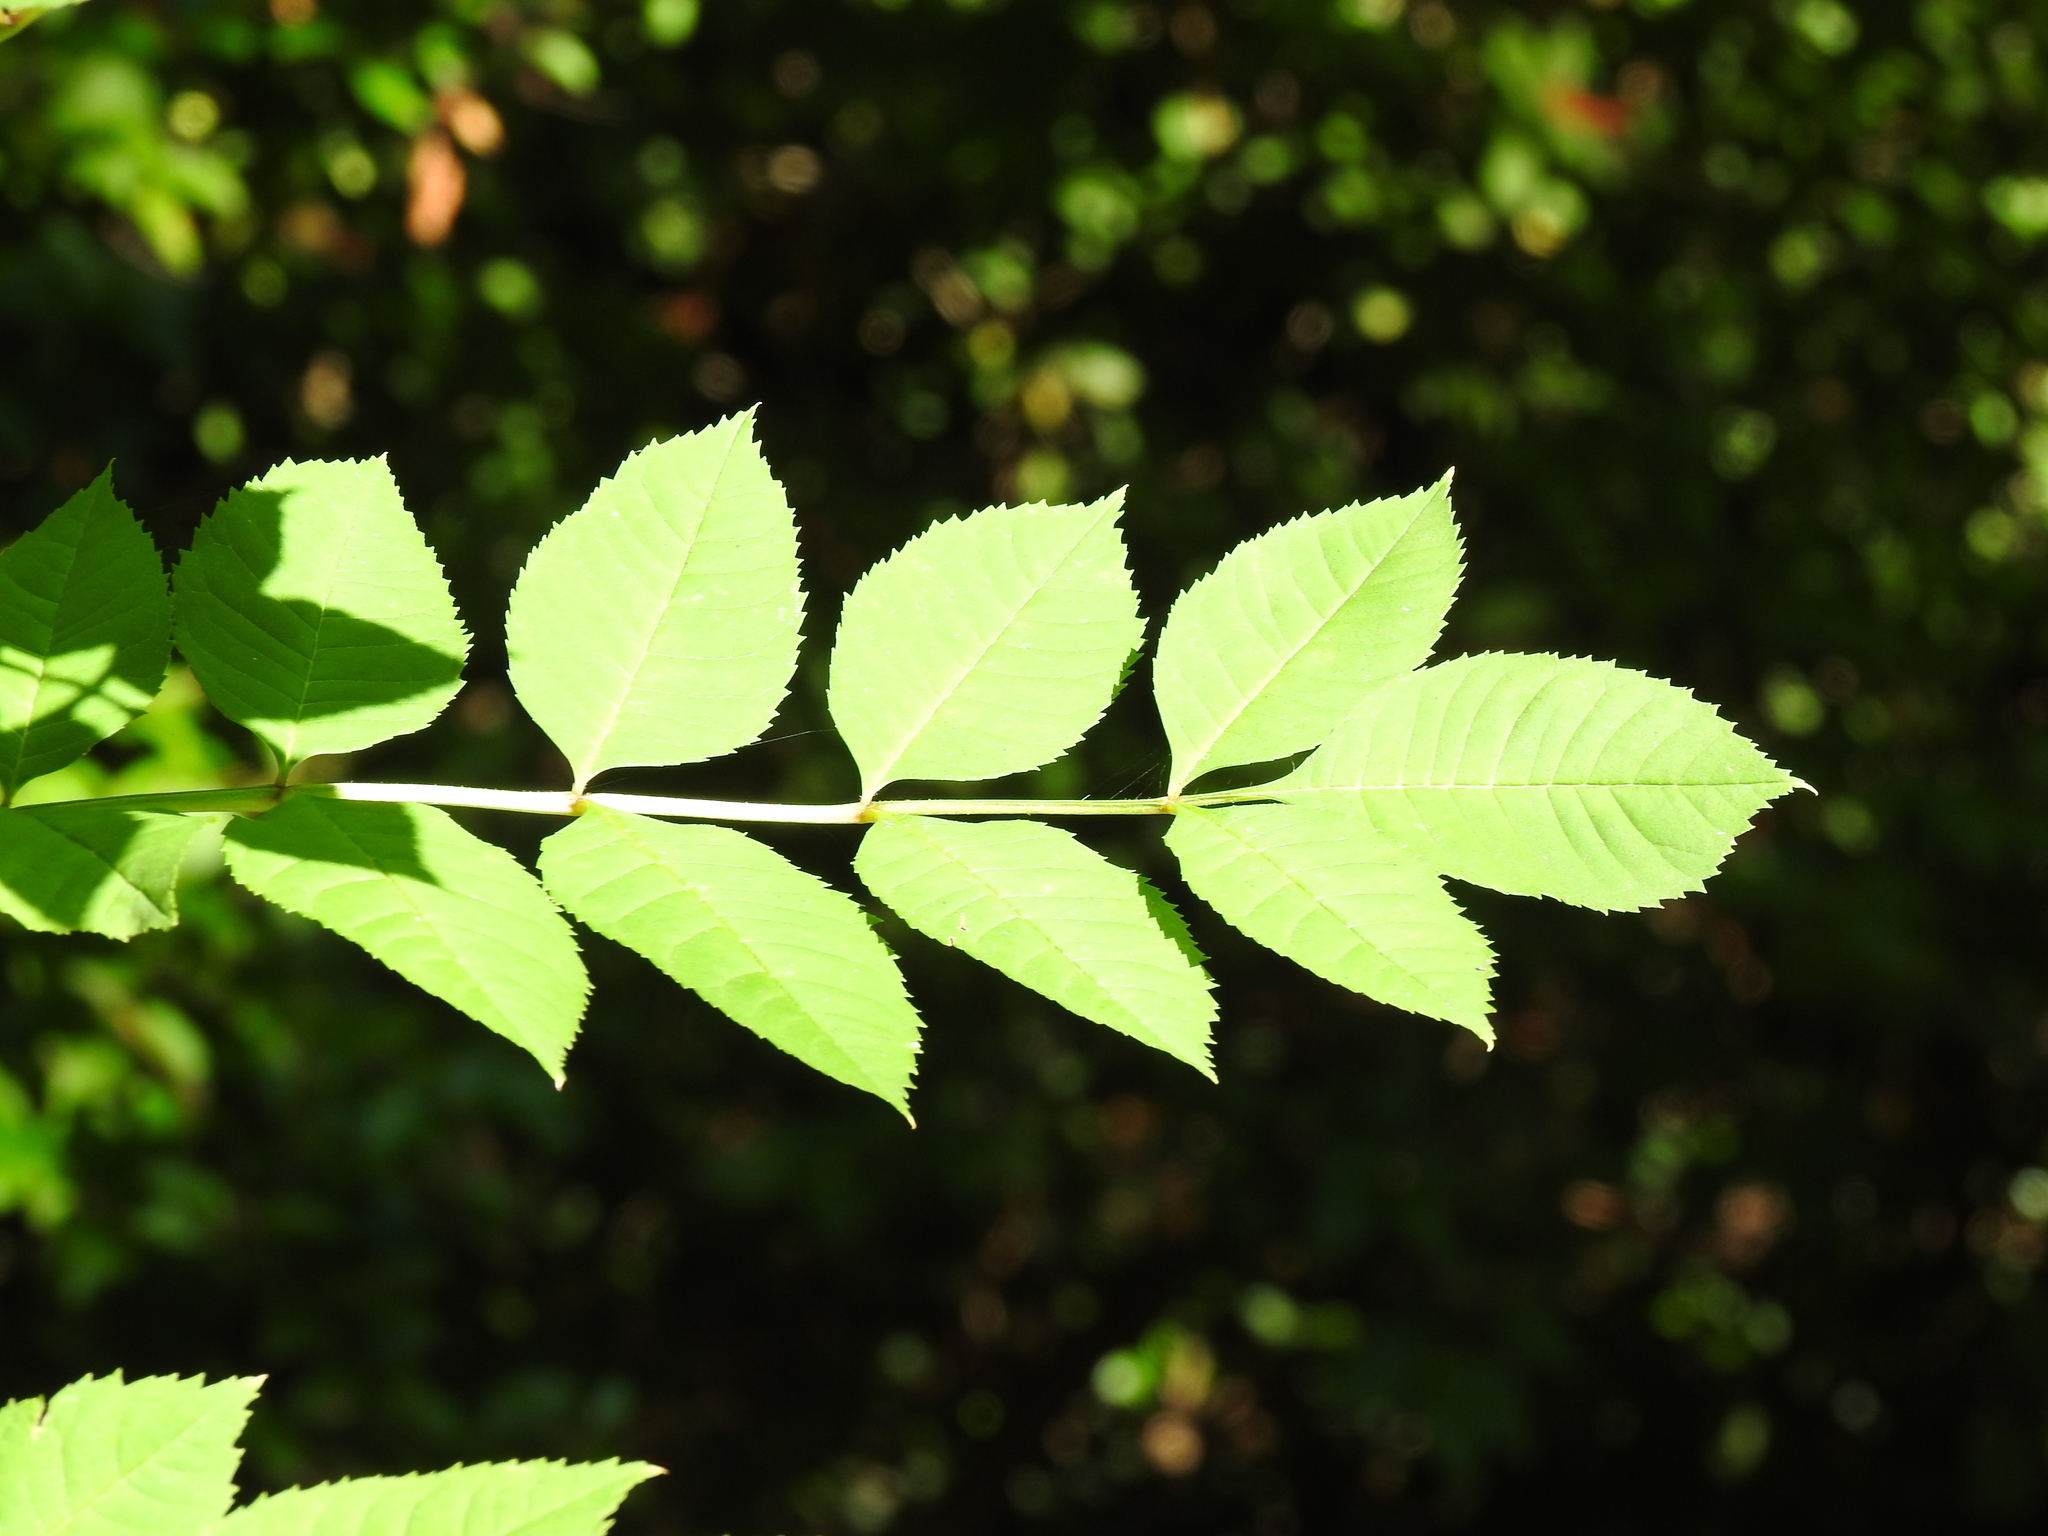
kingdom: Plantae
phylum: Tracheophyta
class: Magnoliopsida
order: Lamiales
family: Oleaceae
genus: Fraxinus
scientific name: Fraxinus excelsior
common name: European ash
